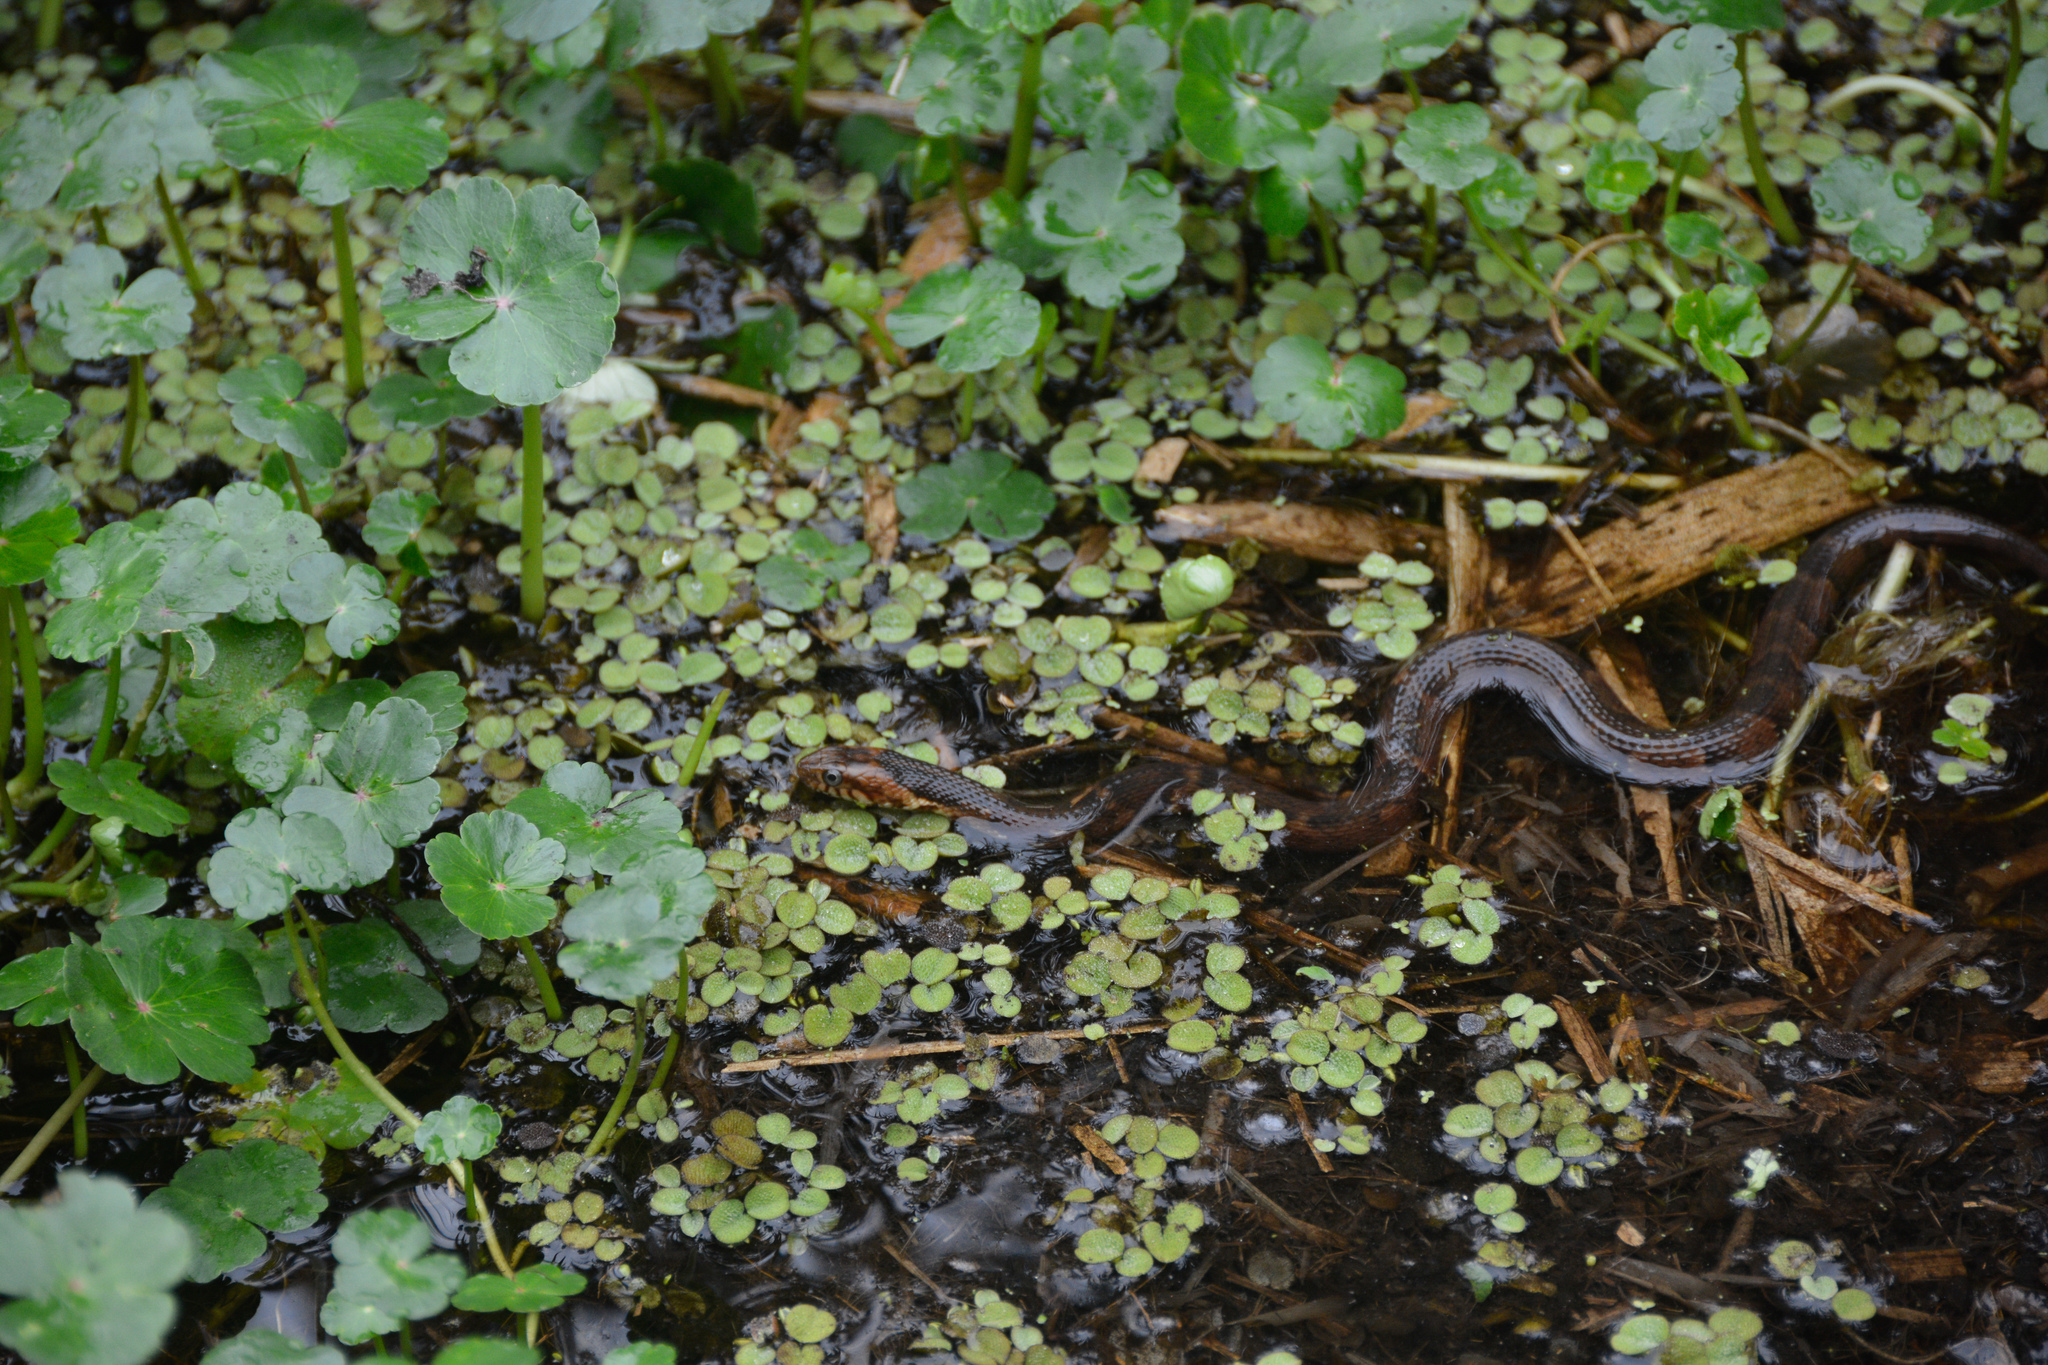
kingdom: Animalia
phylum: Chordata
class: Squamata
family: Colubridae
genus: Nerodia
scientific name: Nerodia fasciata
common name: Southern water snake
